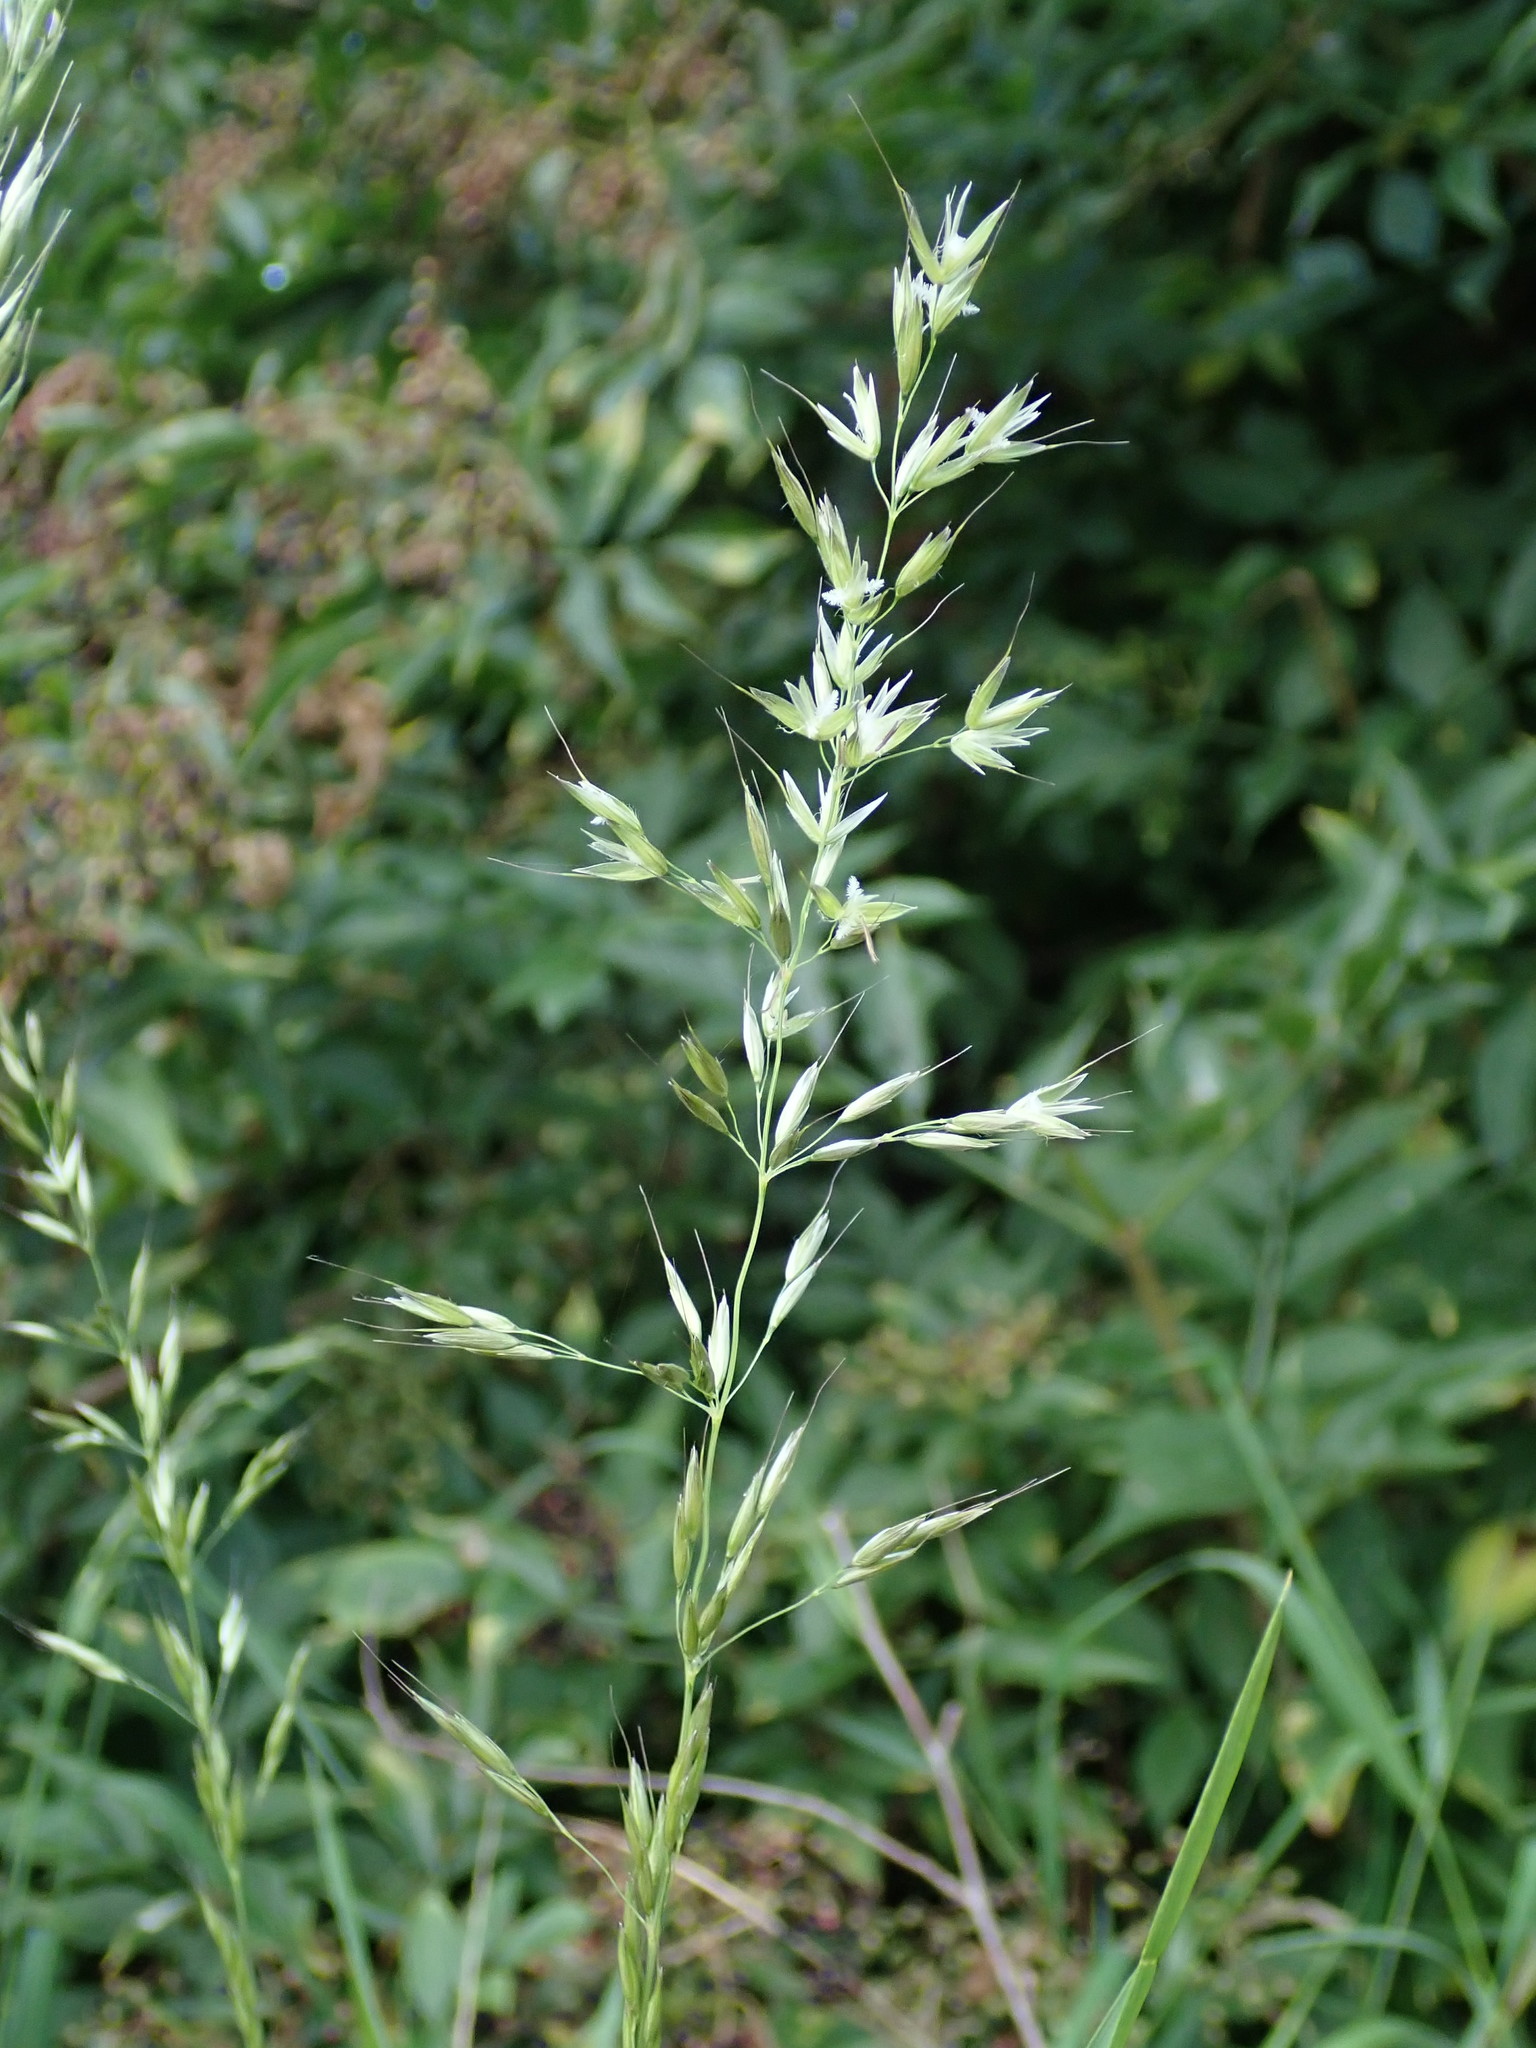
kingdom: Plantae
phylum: Tracheophyta
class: Liliopsida
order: Poales
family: Poaceae
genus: Arrhenatherum
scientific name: Arrhenatherum elatius
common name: Tall oatgrass
